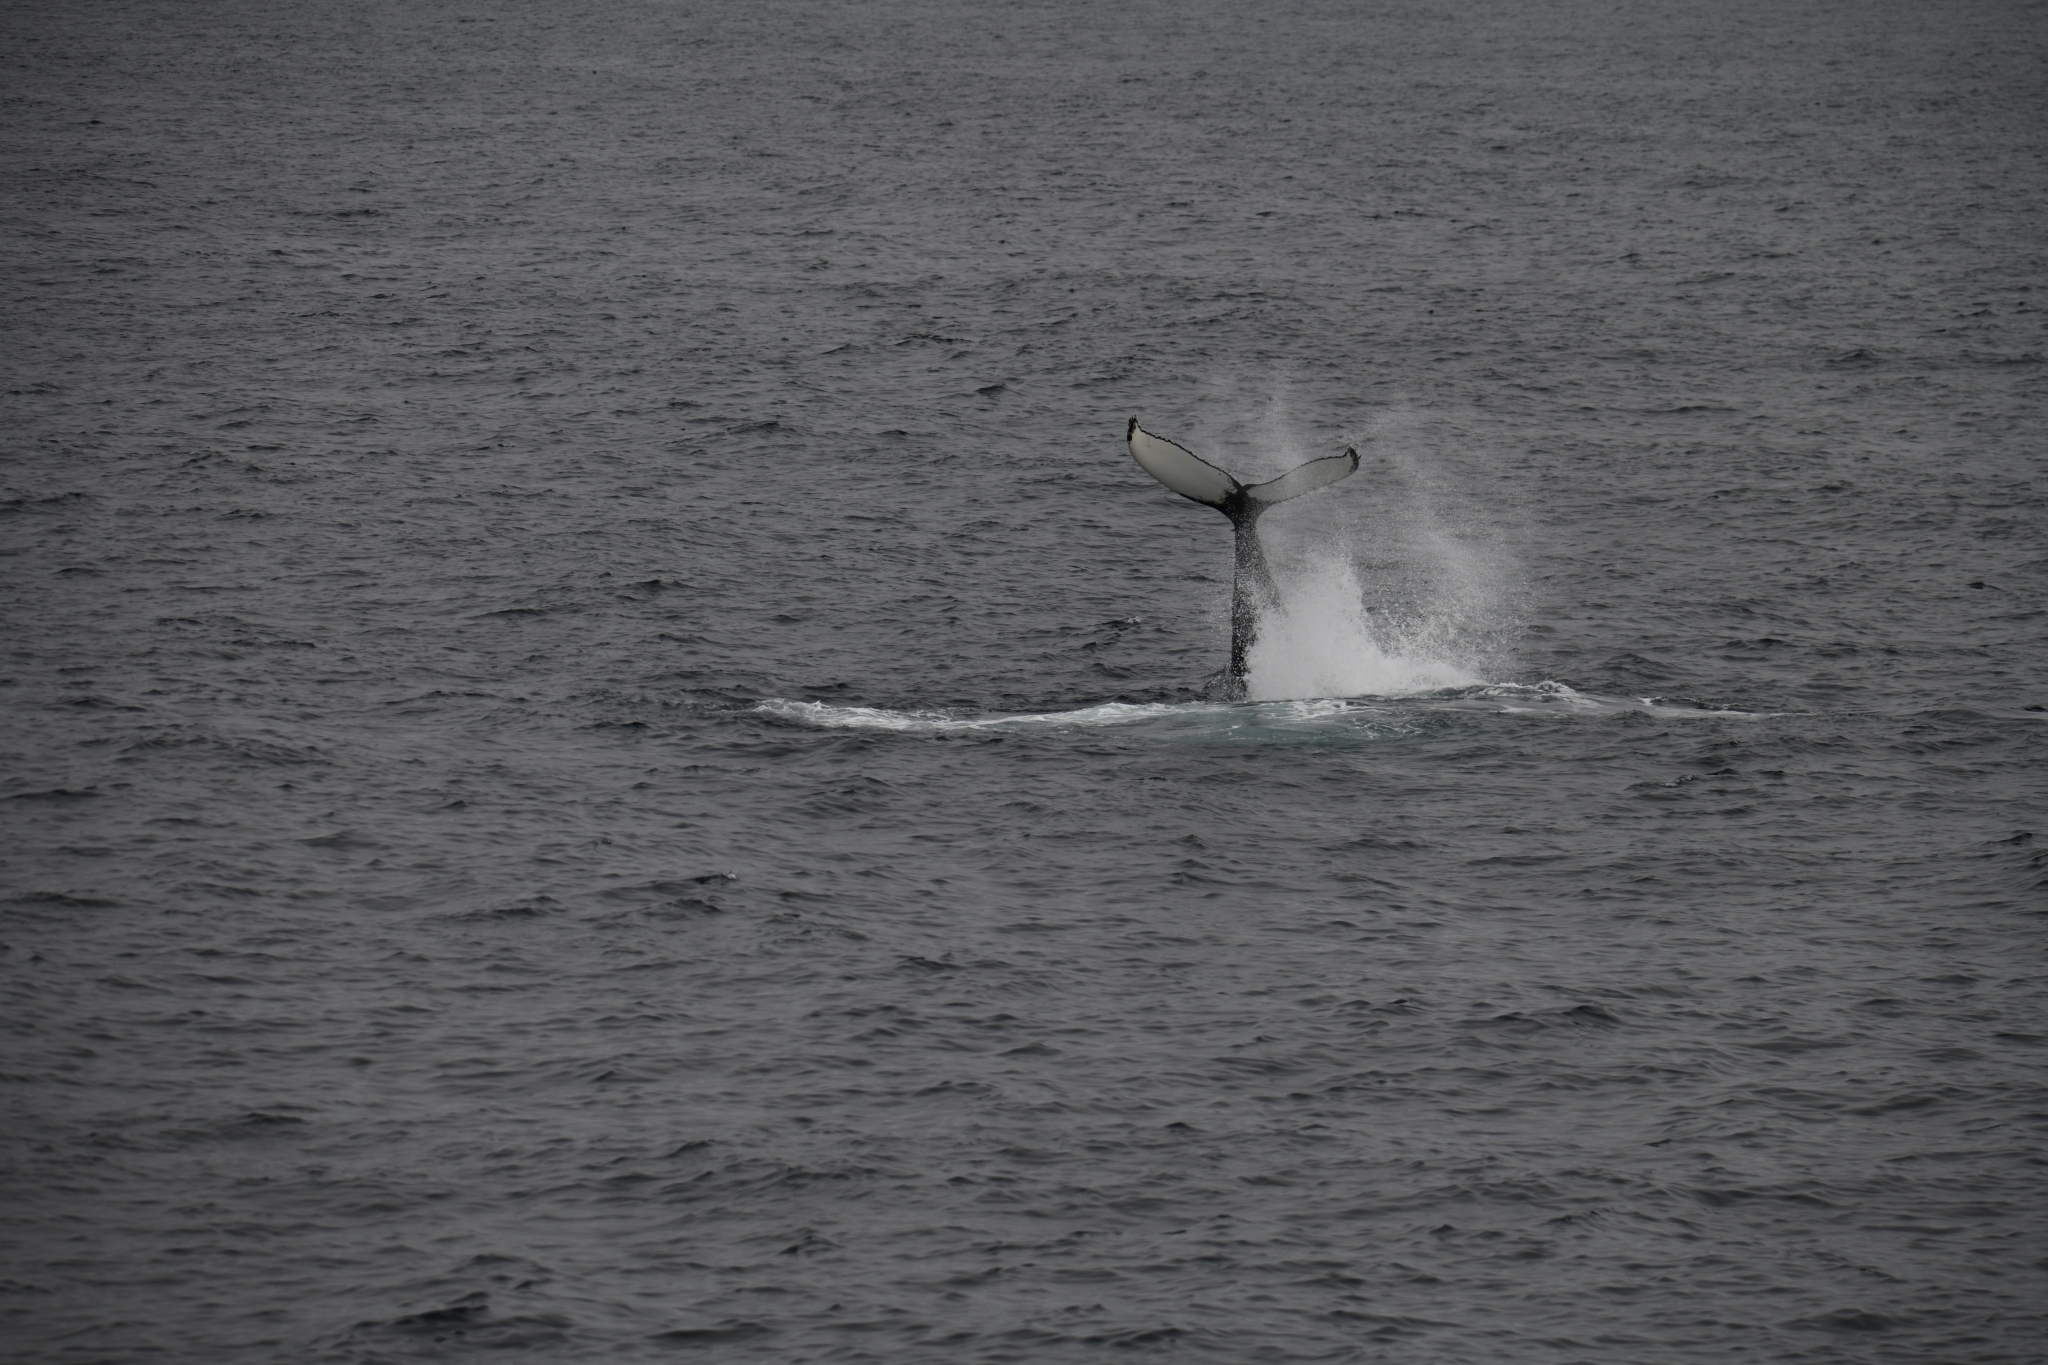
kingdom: Animalia
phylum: Chordata
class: Mammalia
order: Cetacea
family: Balaenopteridae
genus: Megaptera
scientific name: Megaptera novaeangliae
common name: Humpback whale
